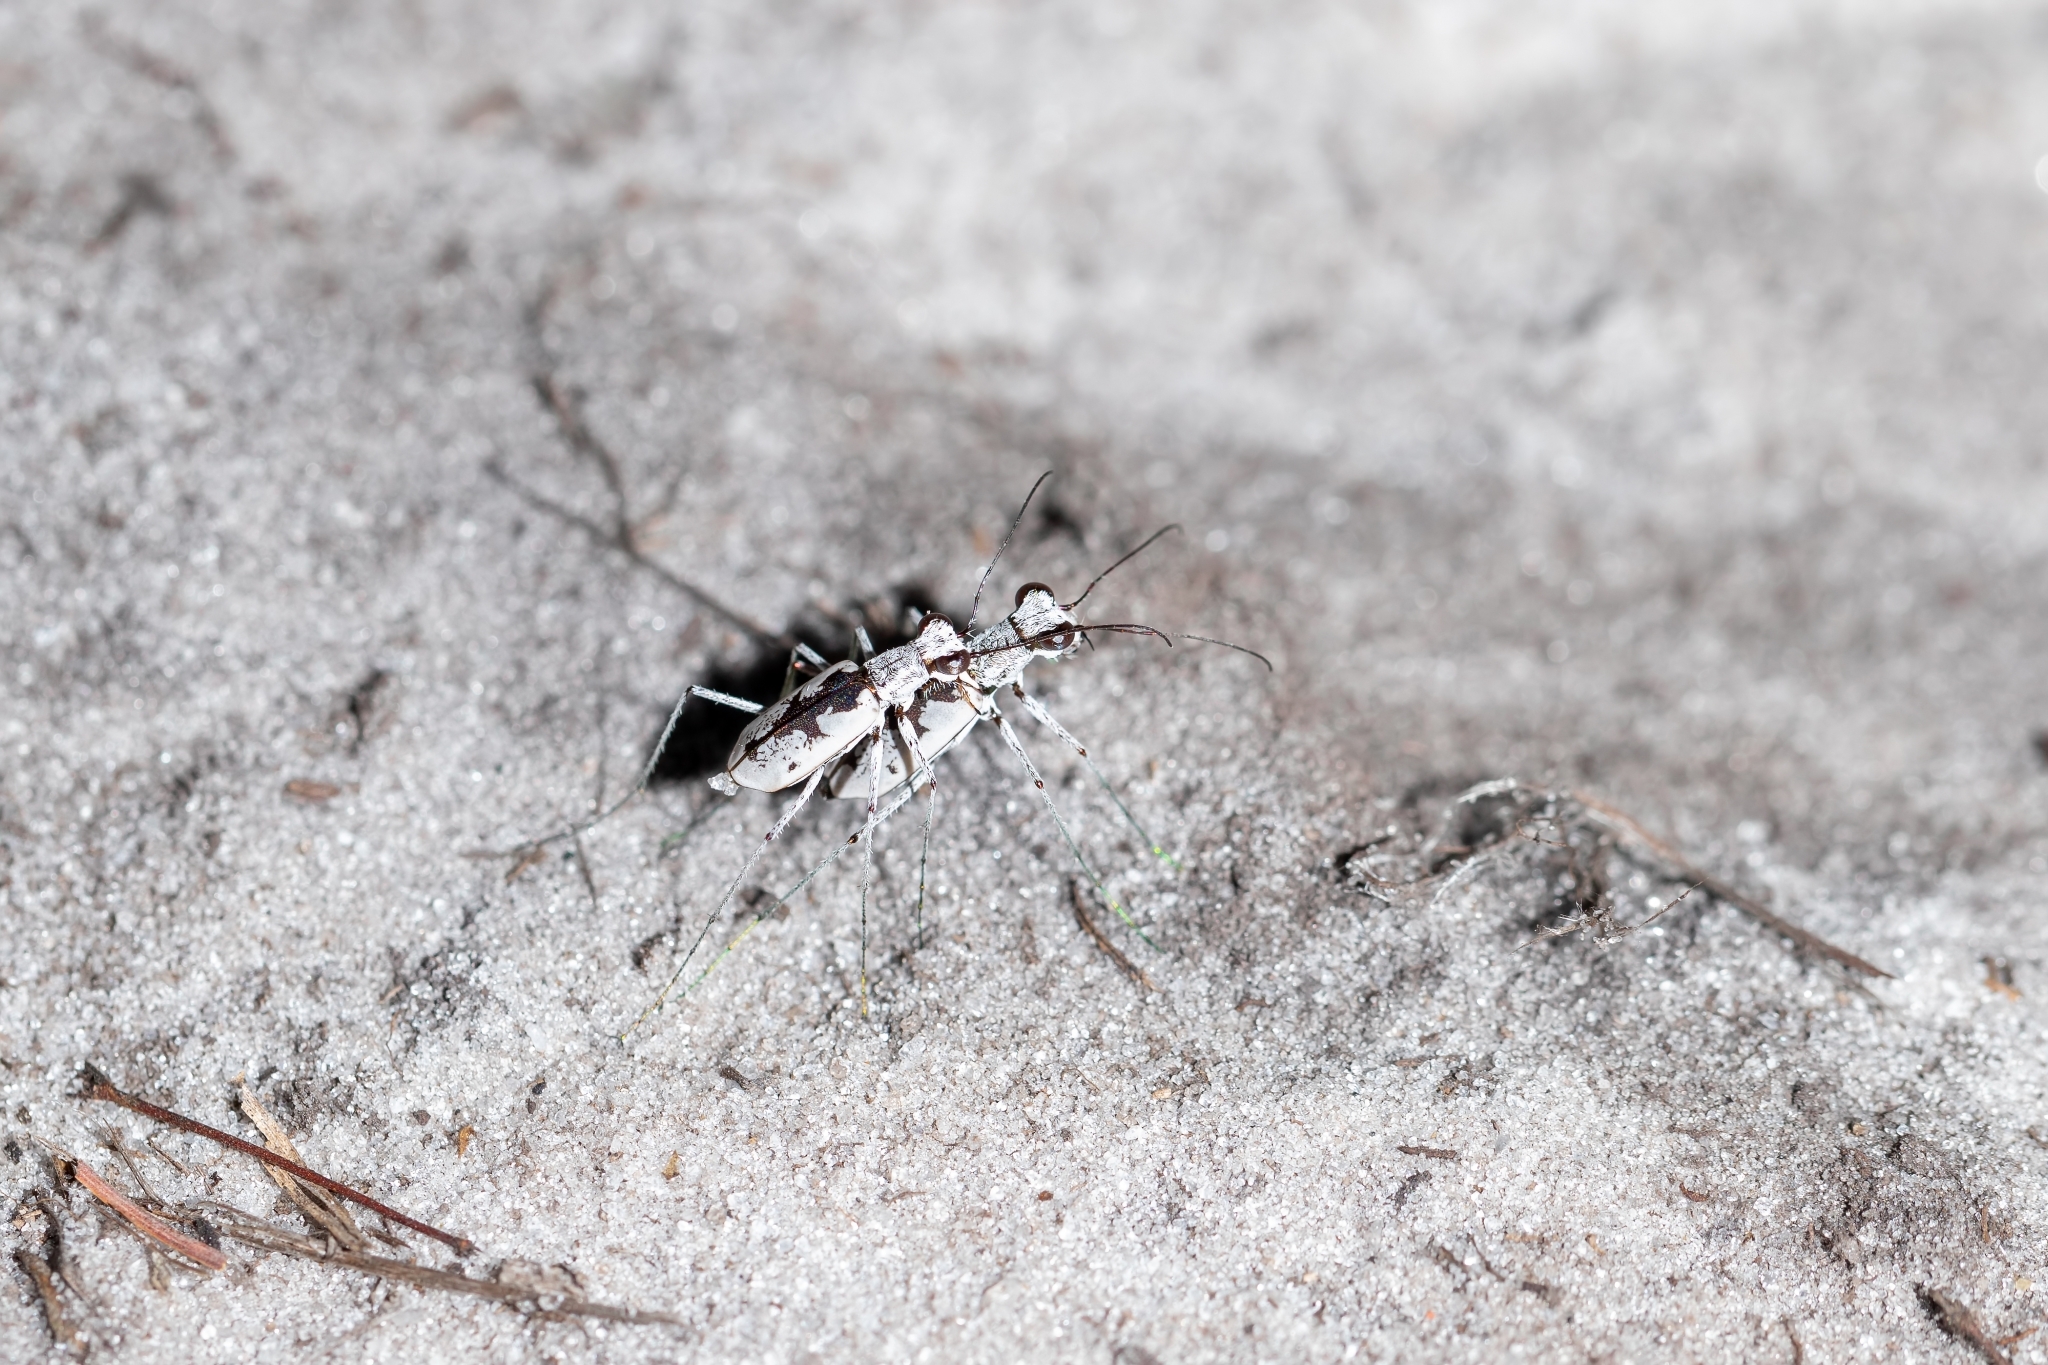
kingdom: Animalia
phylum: Arthropoda
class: Insecta
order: Coleoptera
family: Carabidae
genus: Ellipsoptera
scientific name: Ellipsoptera hirtilabris
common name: Moustached tiger beetle
